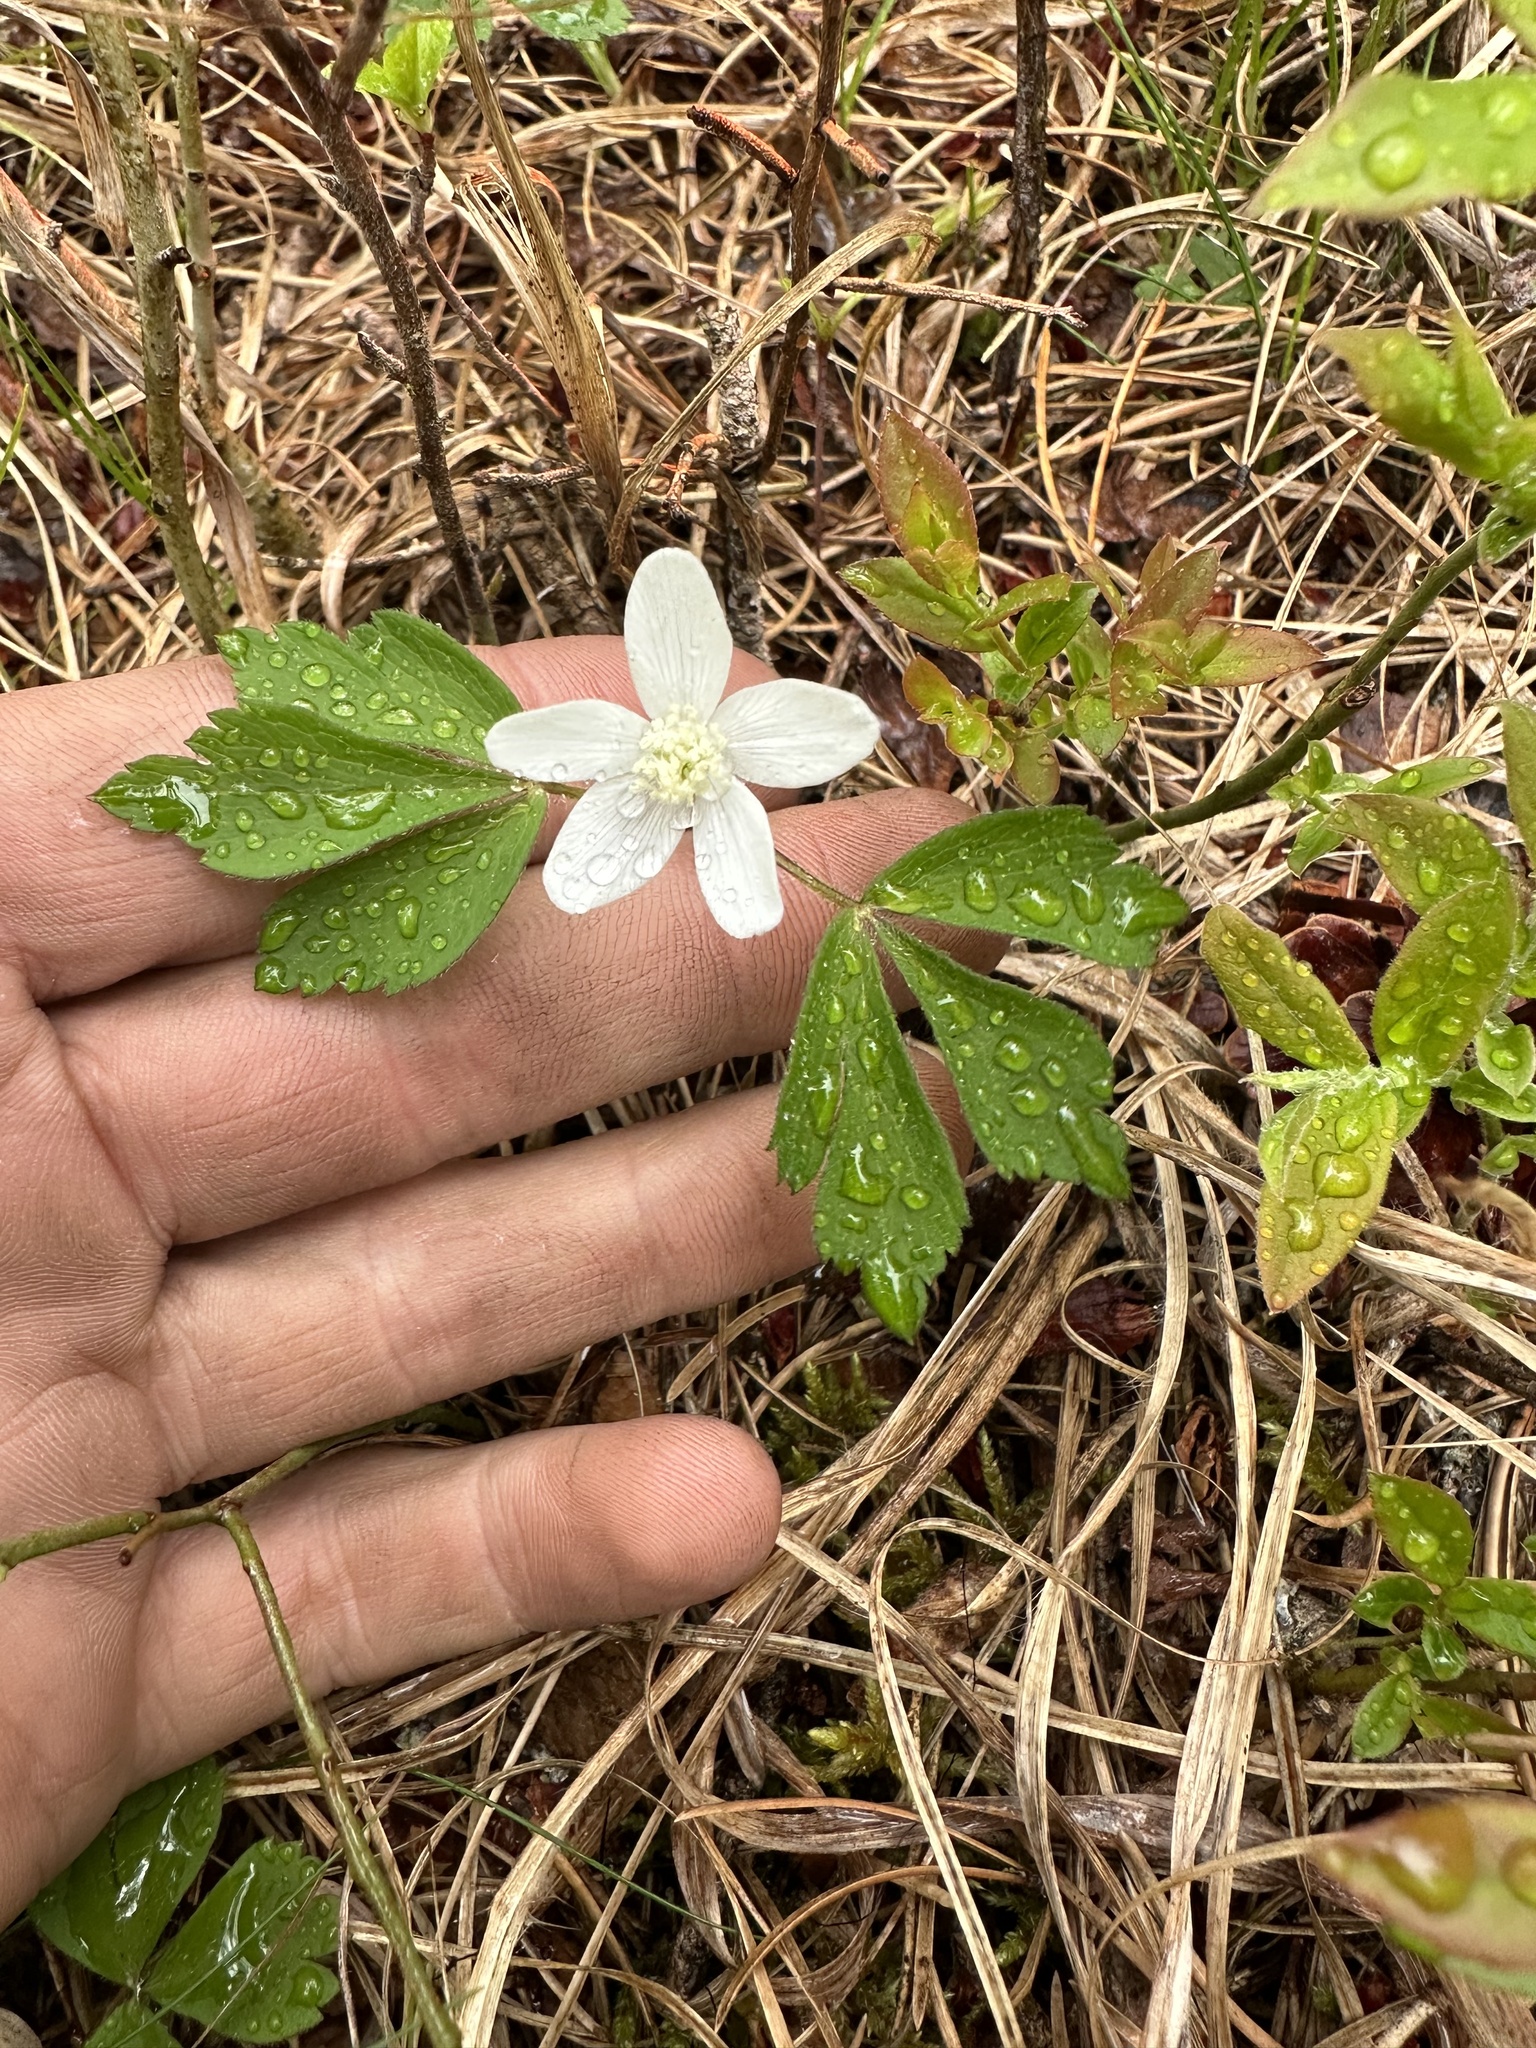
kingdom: Plantae
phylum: Tracheophyta
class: Magnoliopsida
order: Ranunculales
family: Ranunculaceae
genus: Anemone
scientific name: Anemone quinquefolia
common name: Wood anemone
